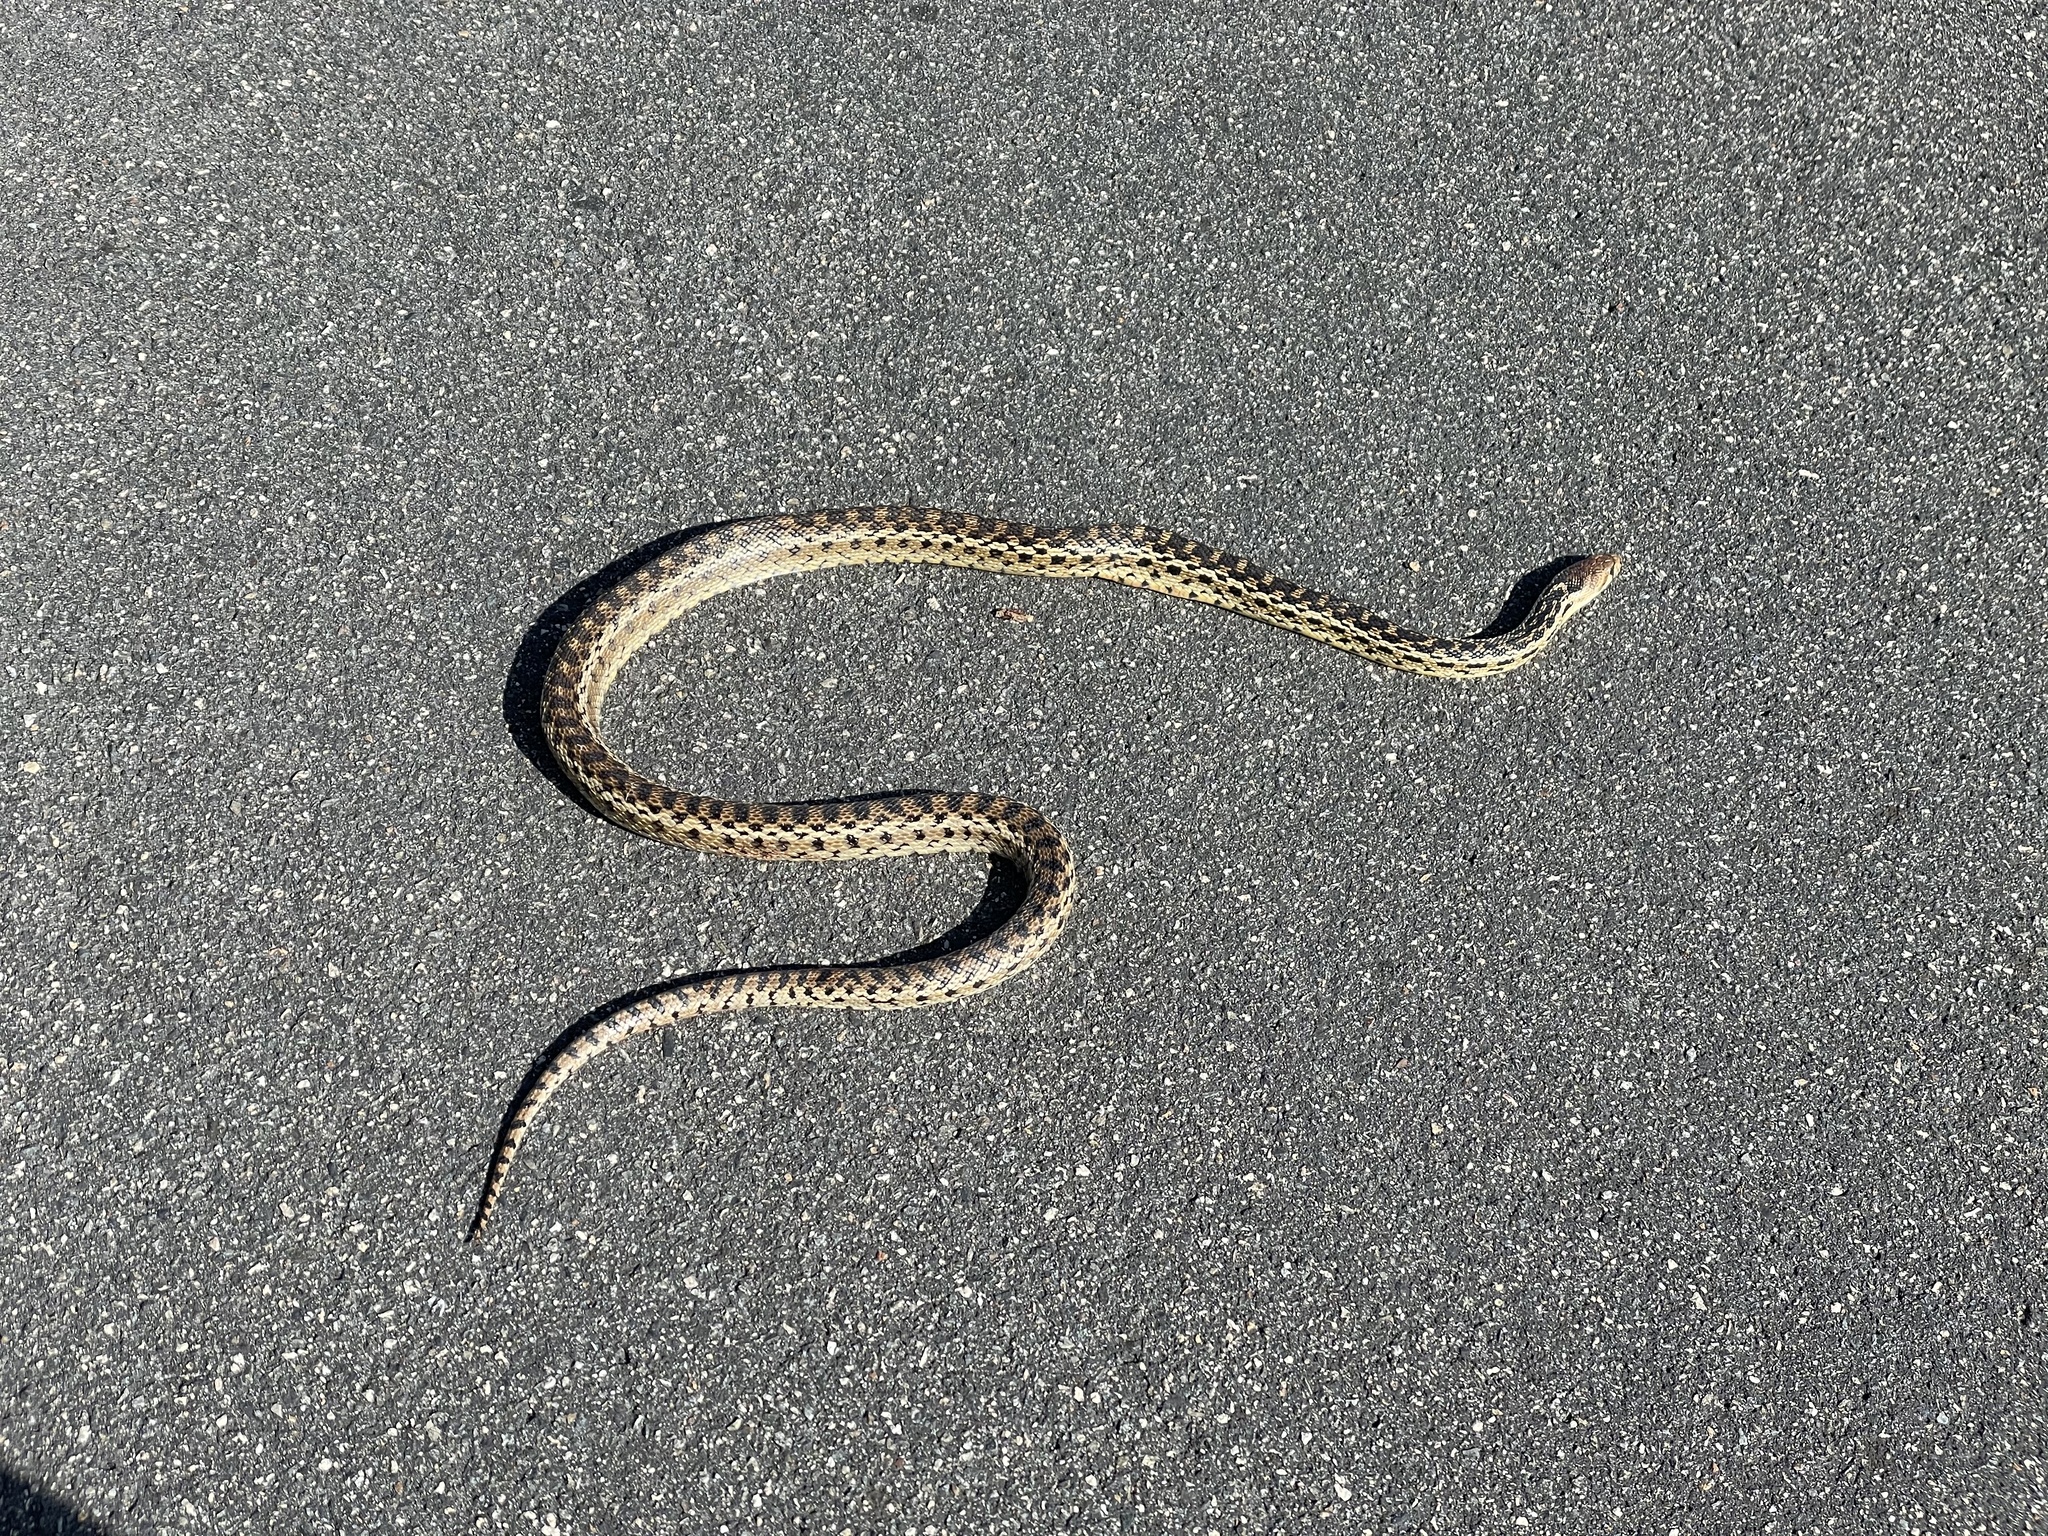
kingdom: Animalia
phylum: Chordata
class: Squamata
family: Colubridae
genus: Pituophis
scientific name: Pituophis catenifer
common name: Gopher snake
